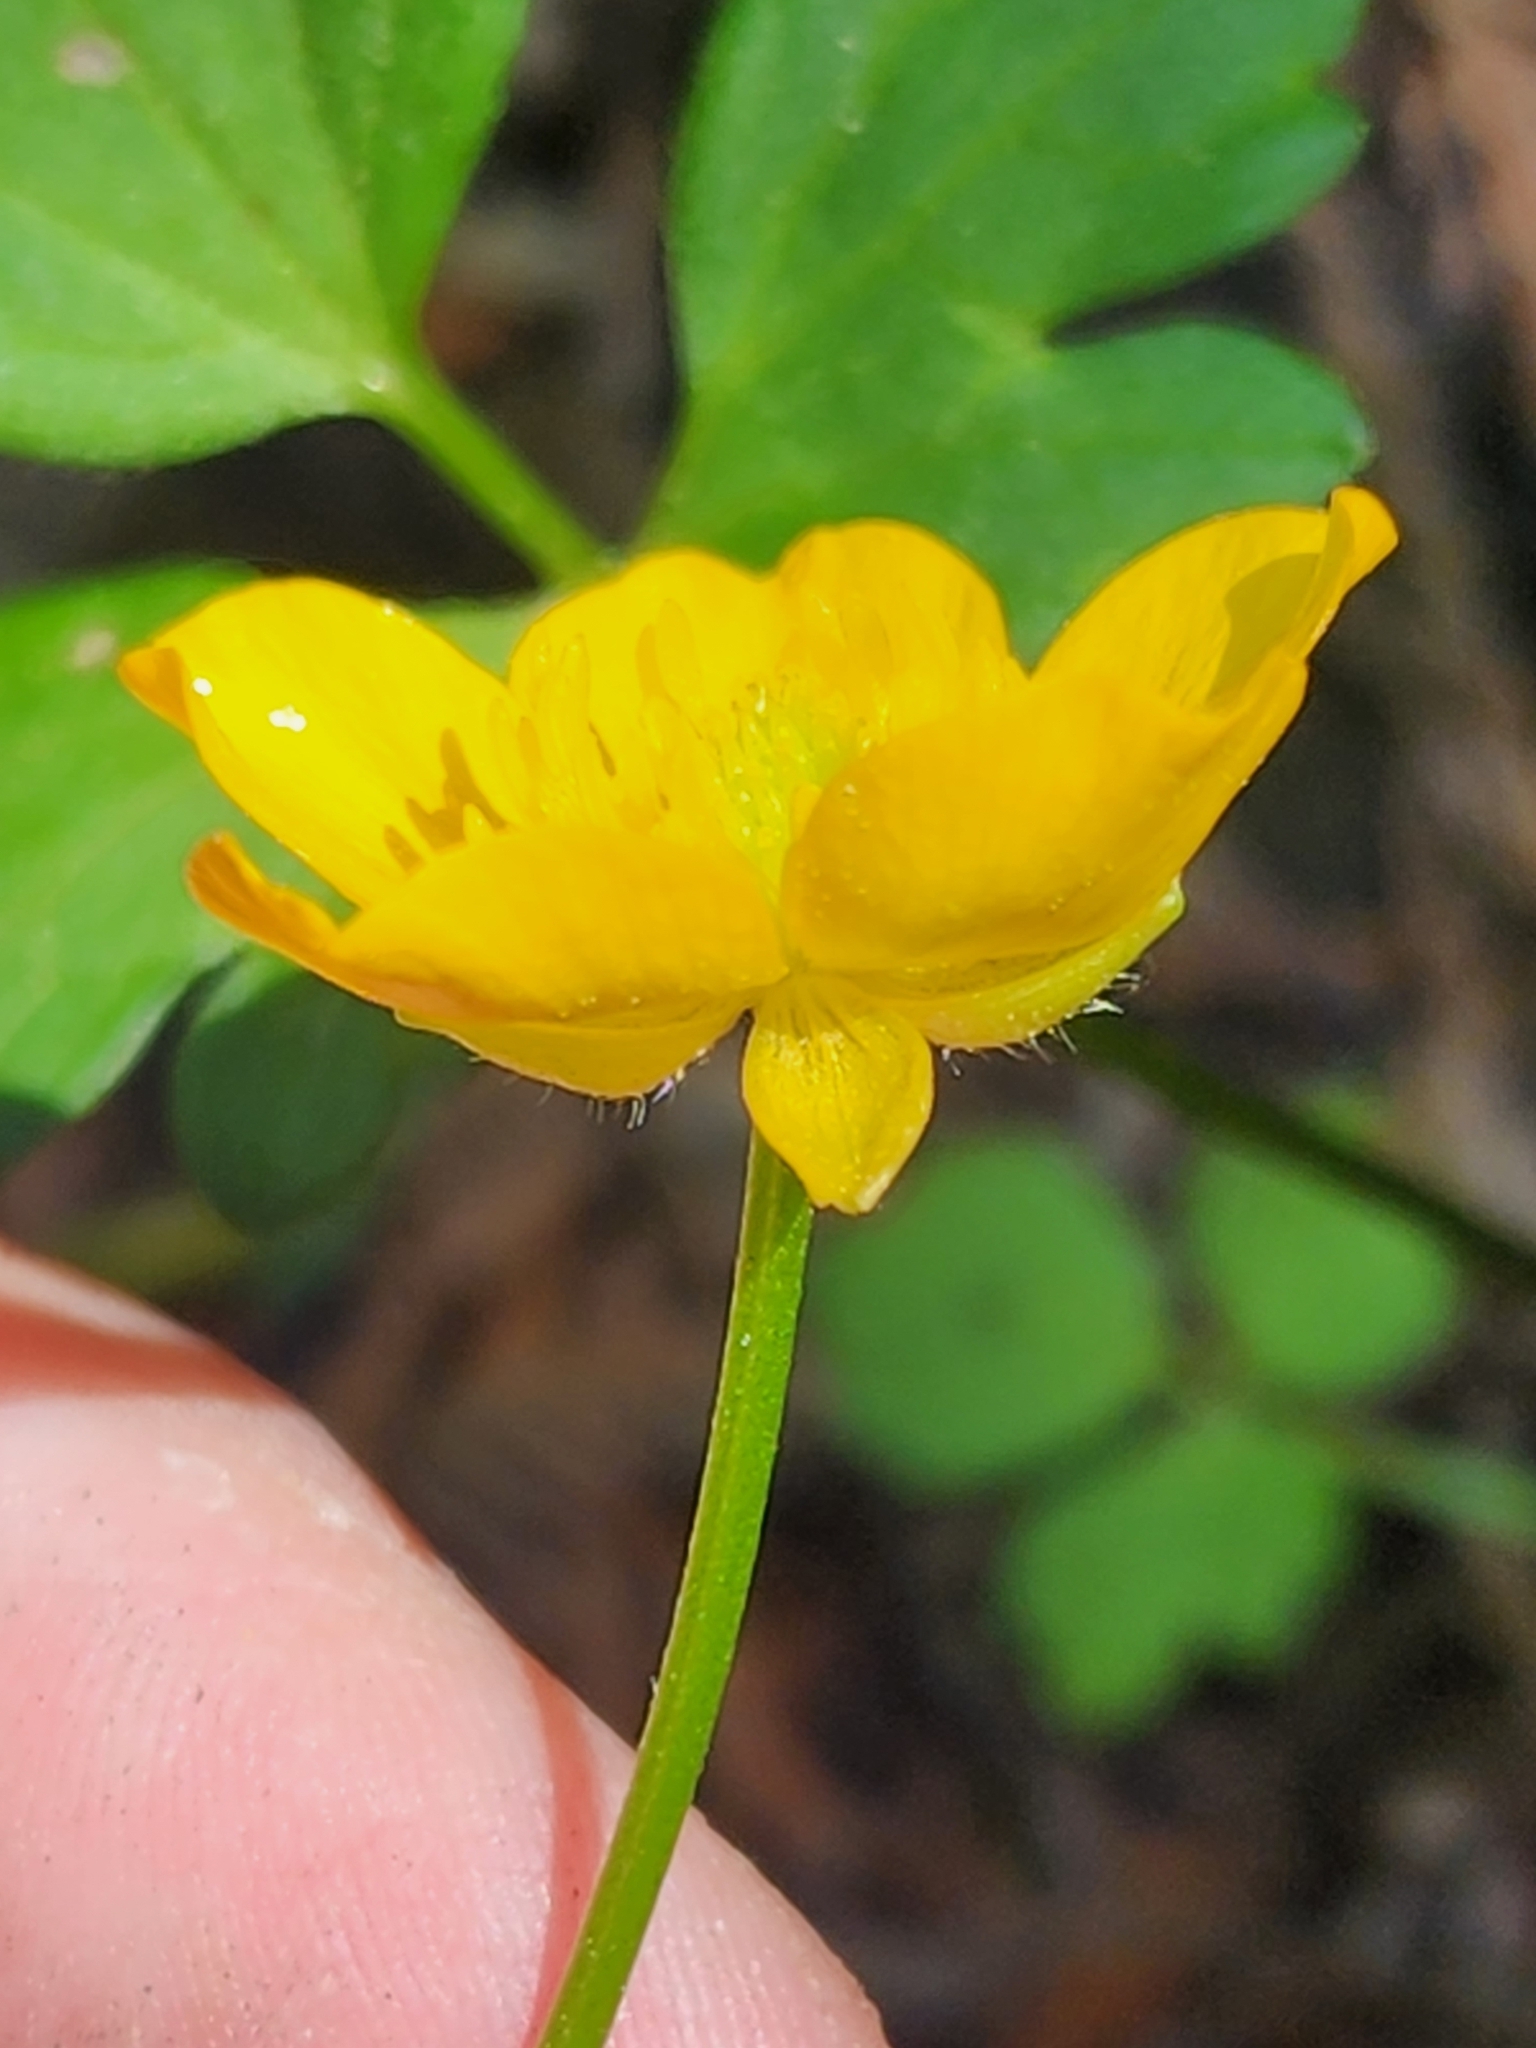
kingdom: Plantae
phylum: Tracheophyta
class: Magnoliopsida
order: Ranunculales
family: Ranunculaceae
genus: Ranunculus
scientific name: Ranunculus hispidus
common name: Bristly buttercup
